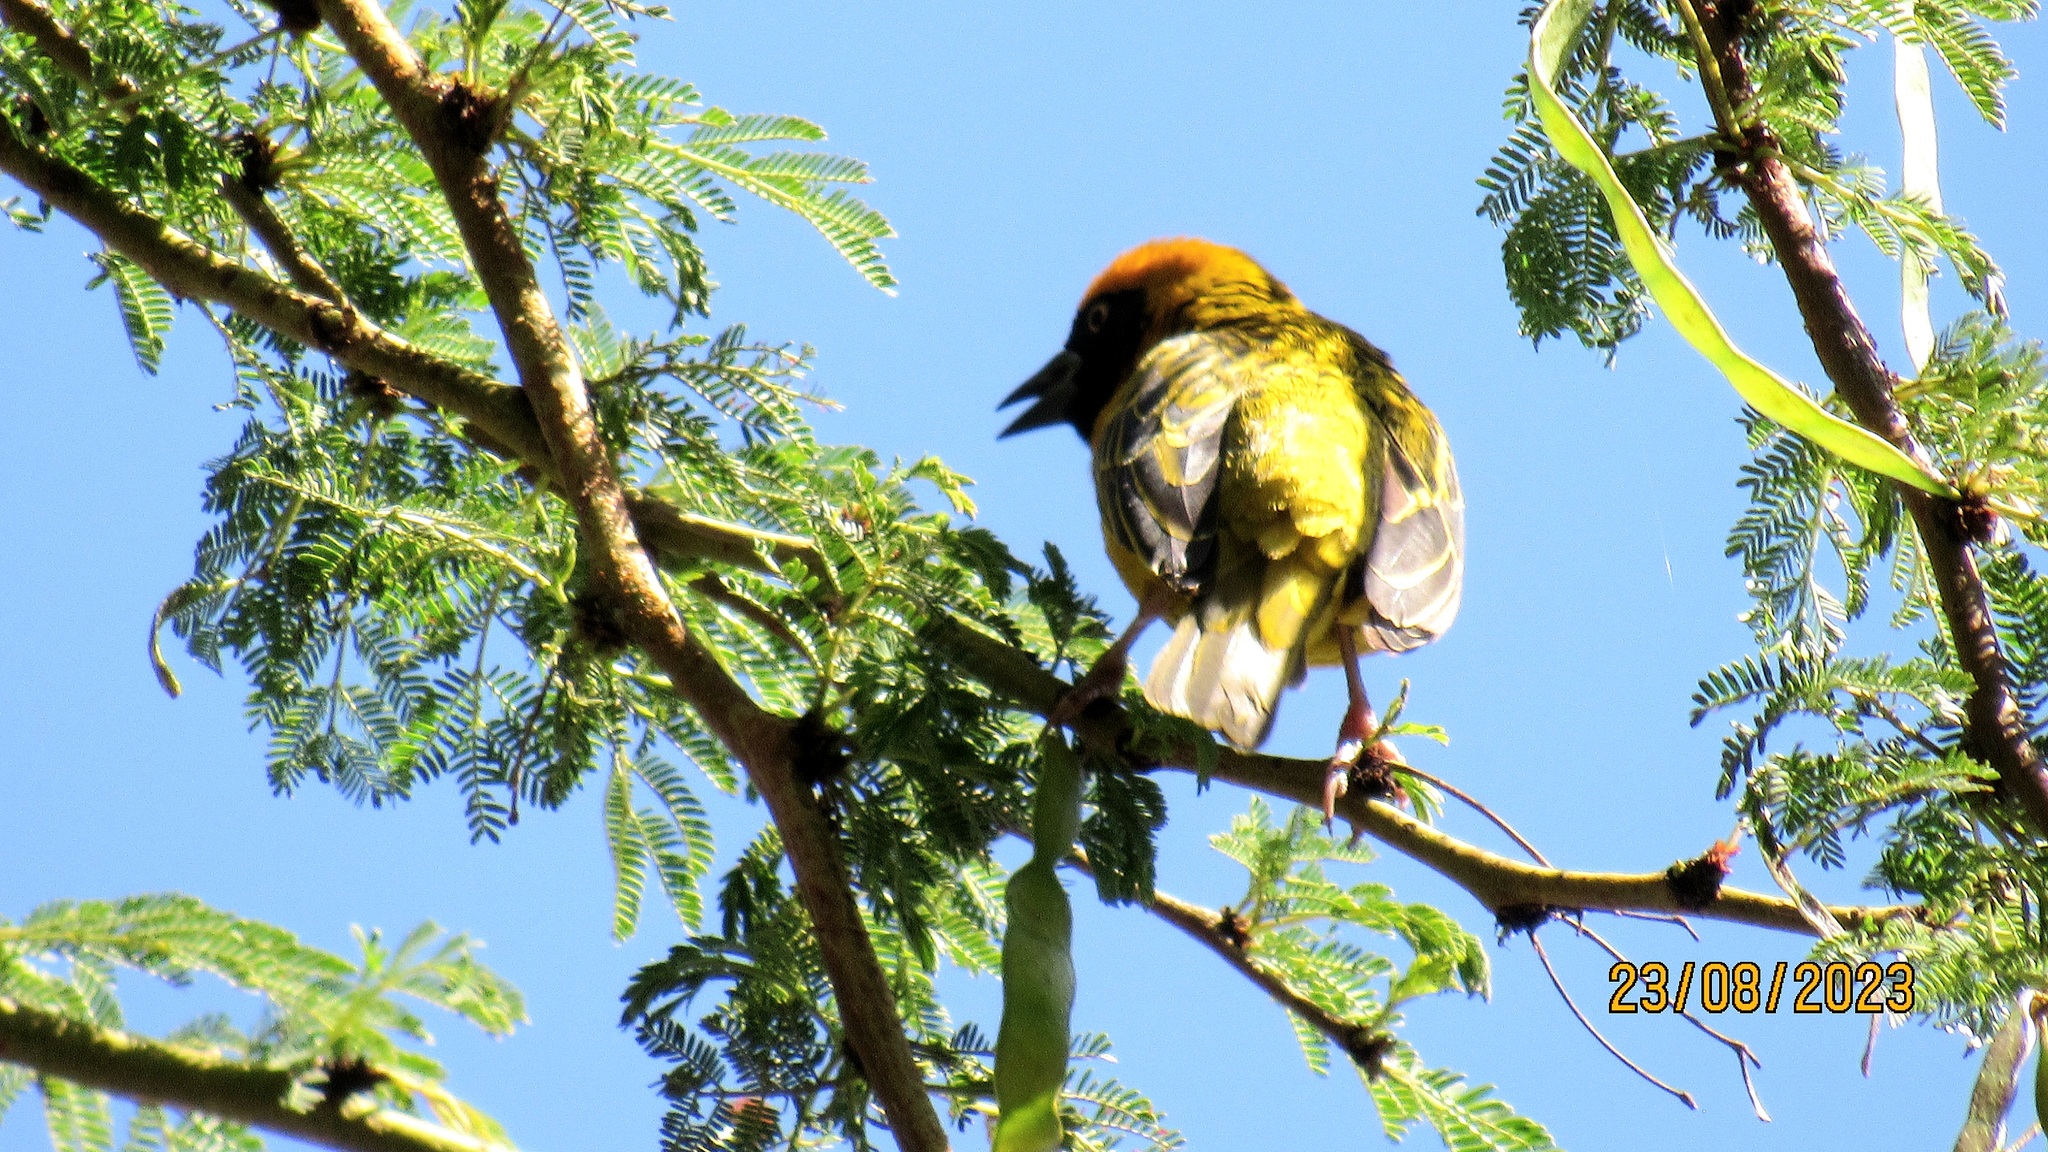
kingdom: Animalia
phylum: Chordata
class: Aves
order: Passeriformes
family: Ploceidae
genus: Ploceus
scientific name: Ploceus spekei
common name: Speke's weaver
